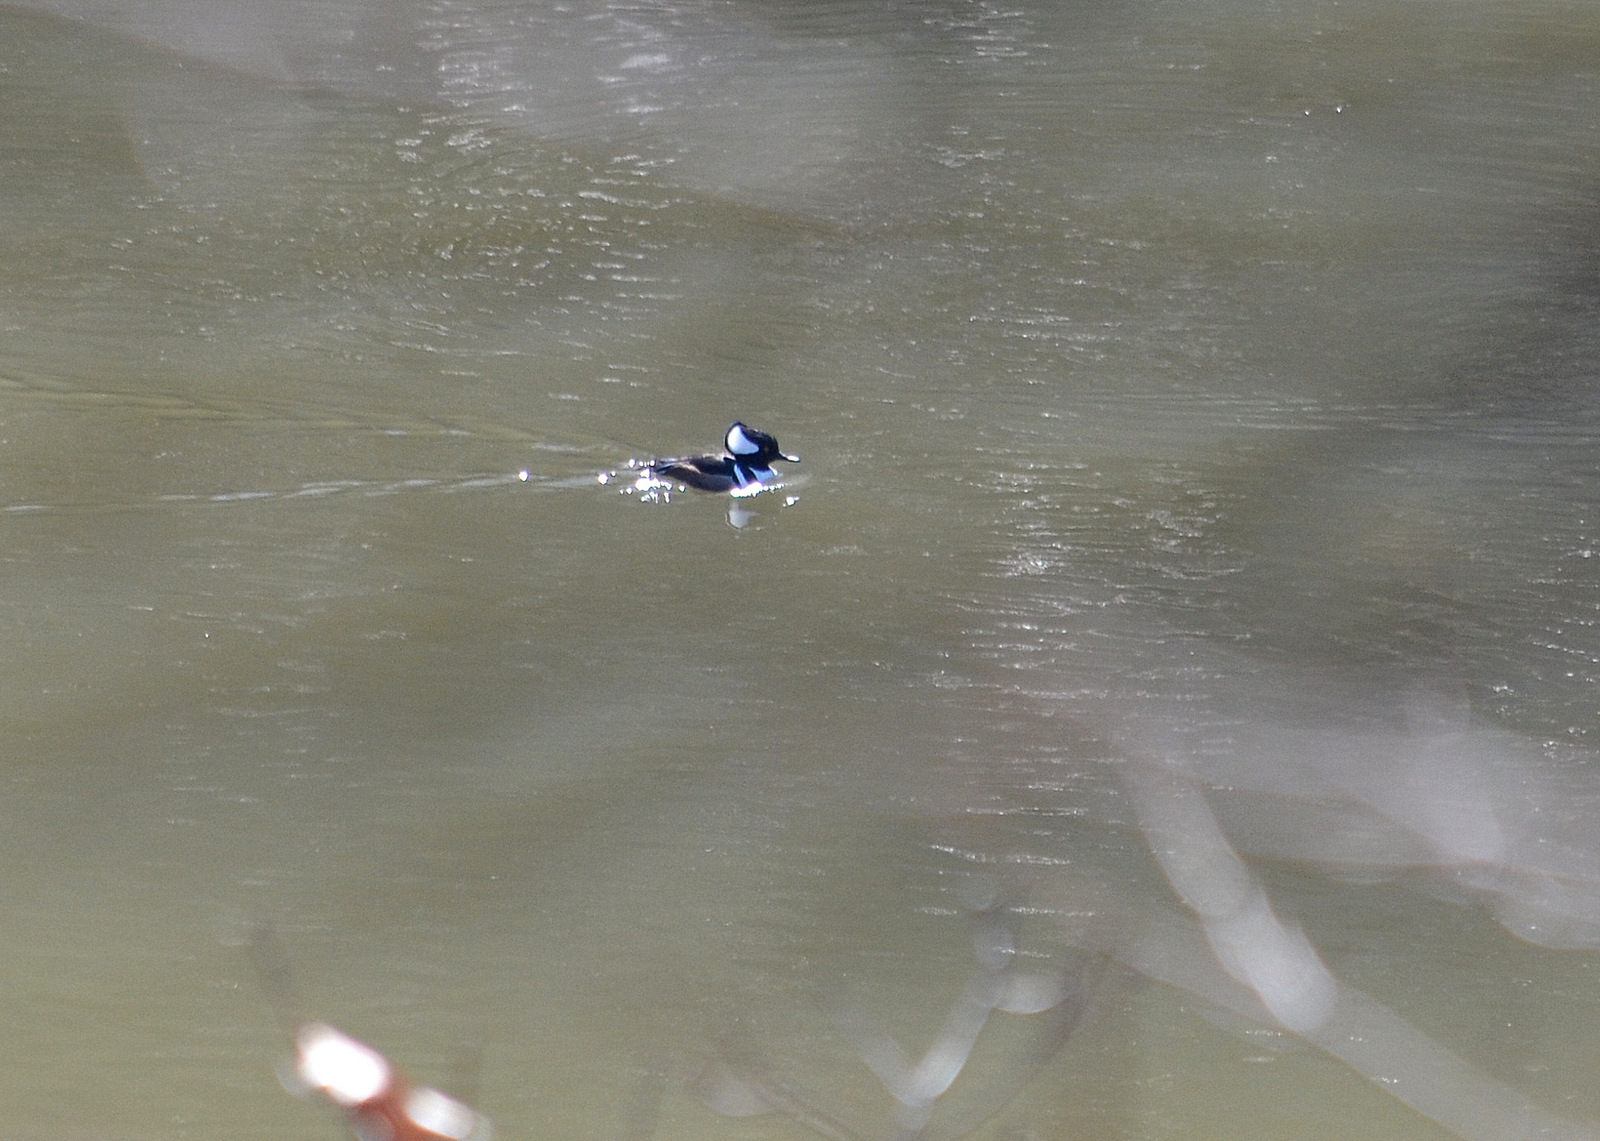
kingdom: Animalia
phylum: Chordata
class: Aves
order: Anseriformes
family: Anatidae
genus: Lophodytes
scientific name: Lophodytes cucullatus
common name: Hooded merganser
